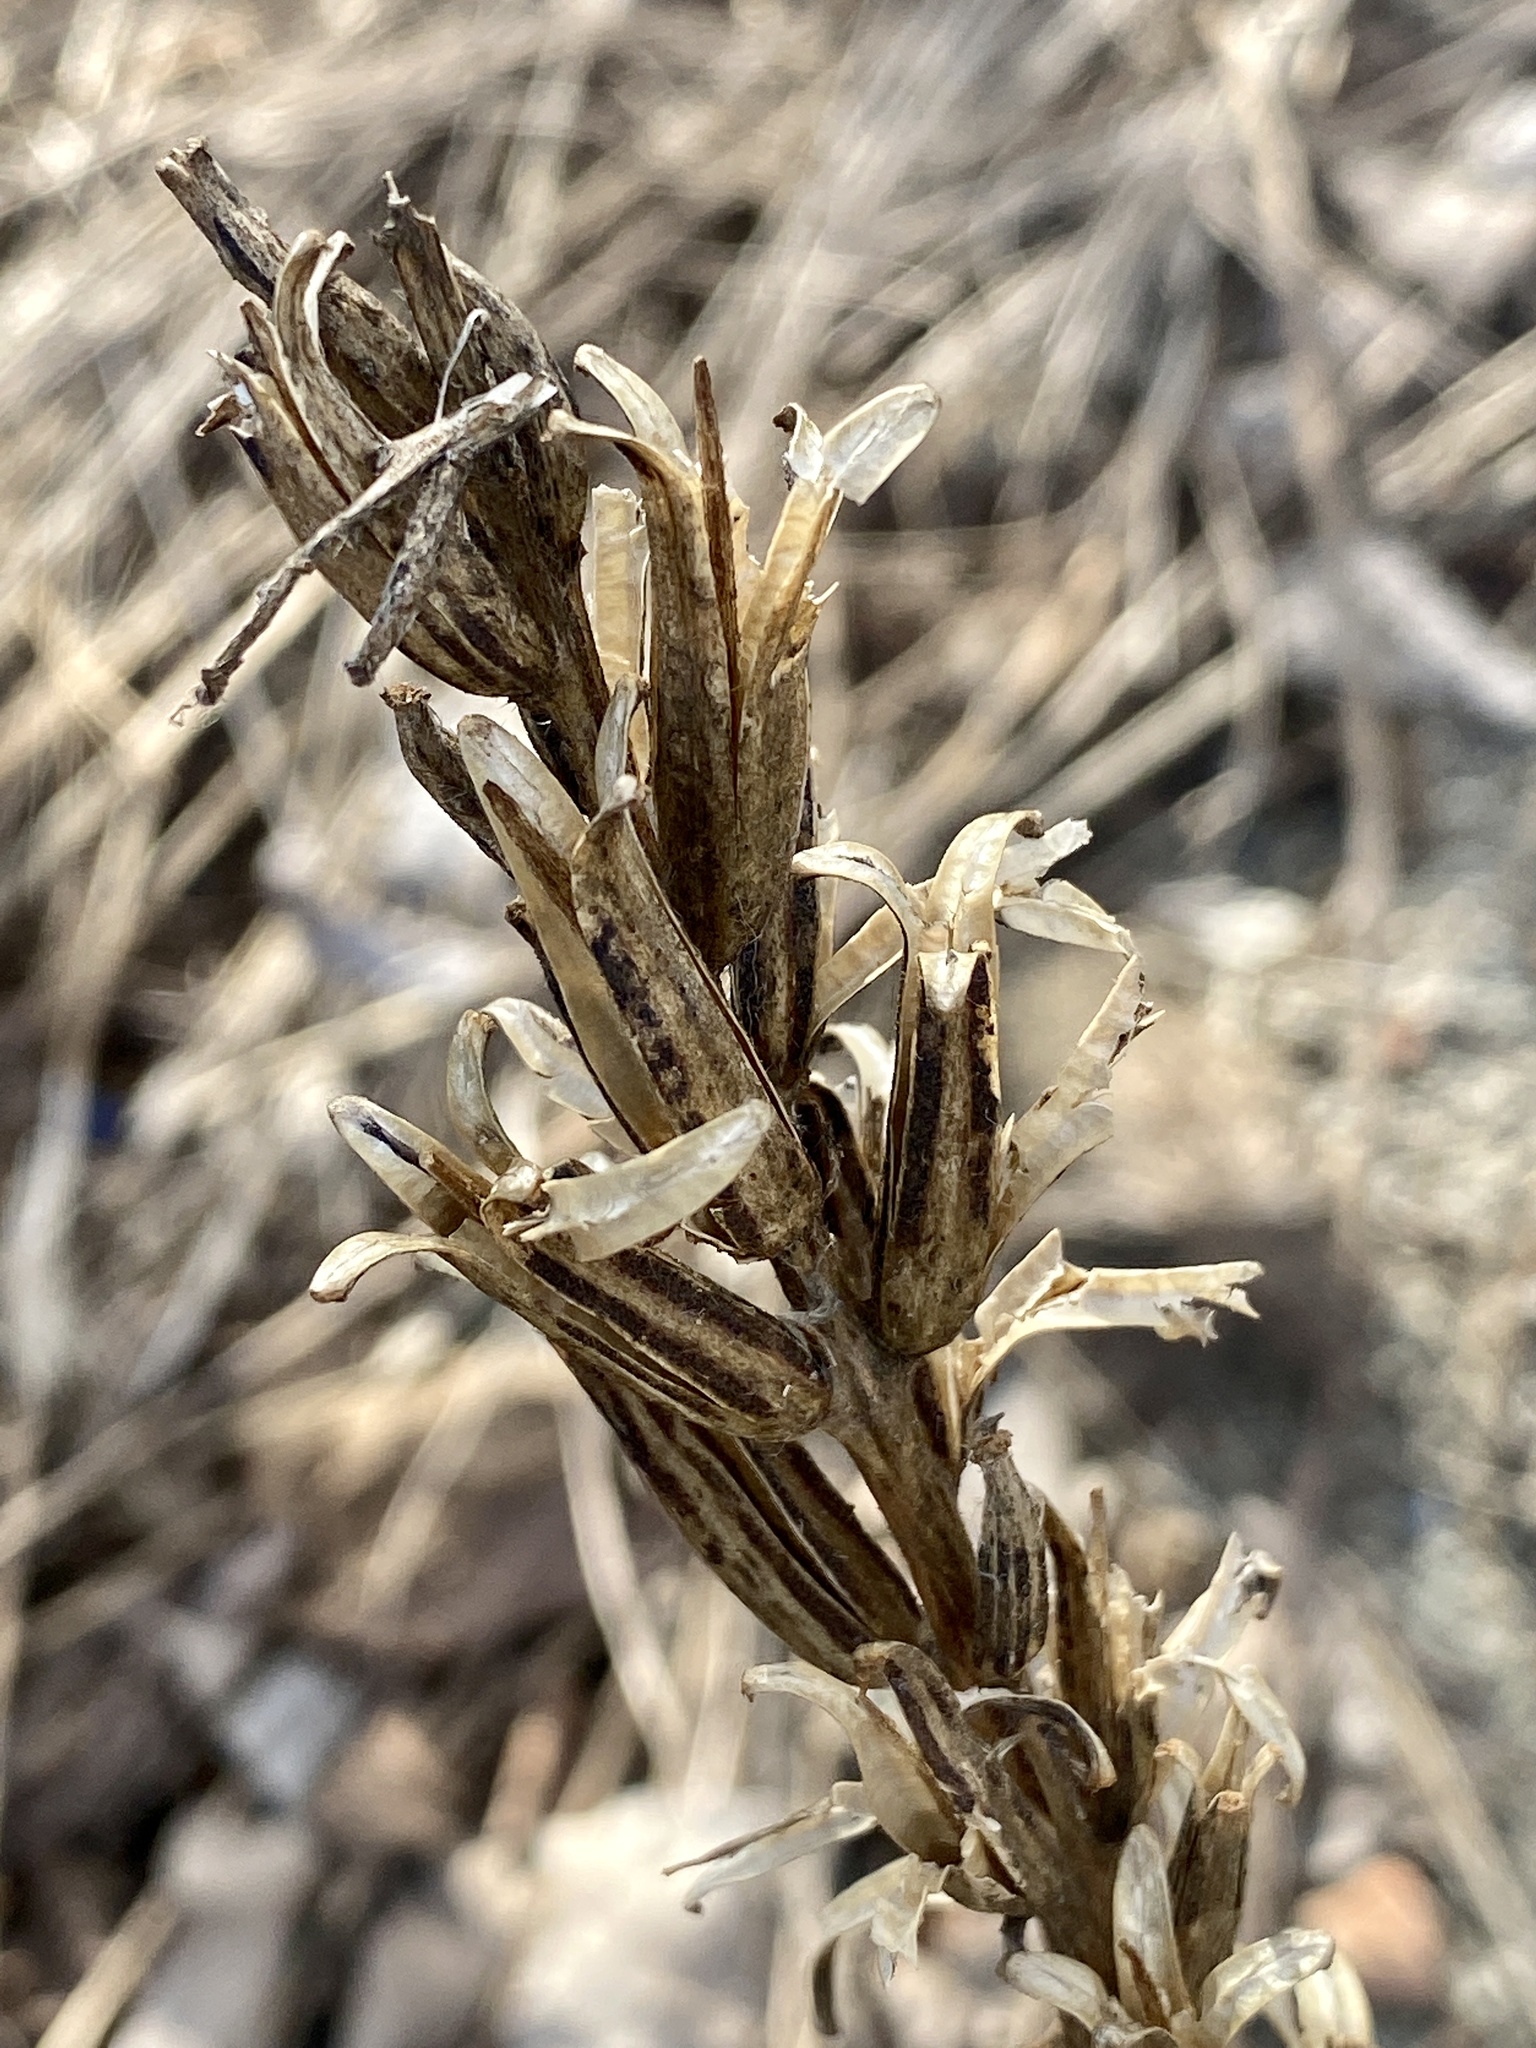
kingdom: Plantae
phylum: Tracheophyta
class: Magnoliopsida
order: Myrtales
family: Onagraceae
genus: Oenothera
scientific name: Oenothera biennis
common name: Common evening-primrose
